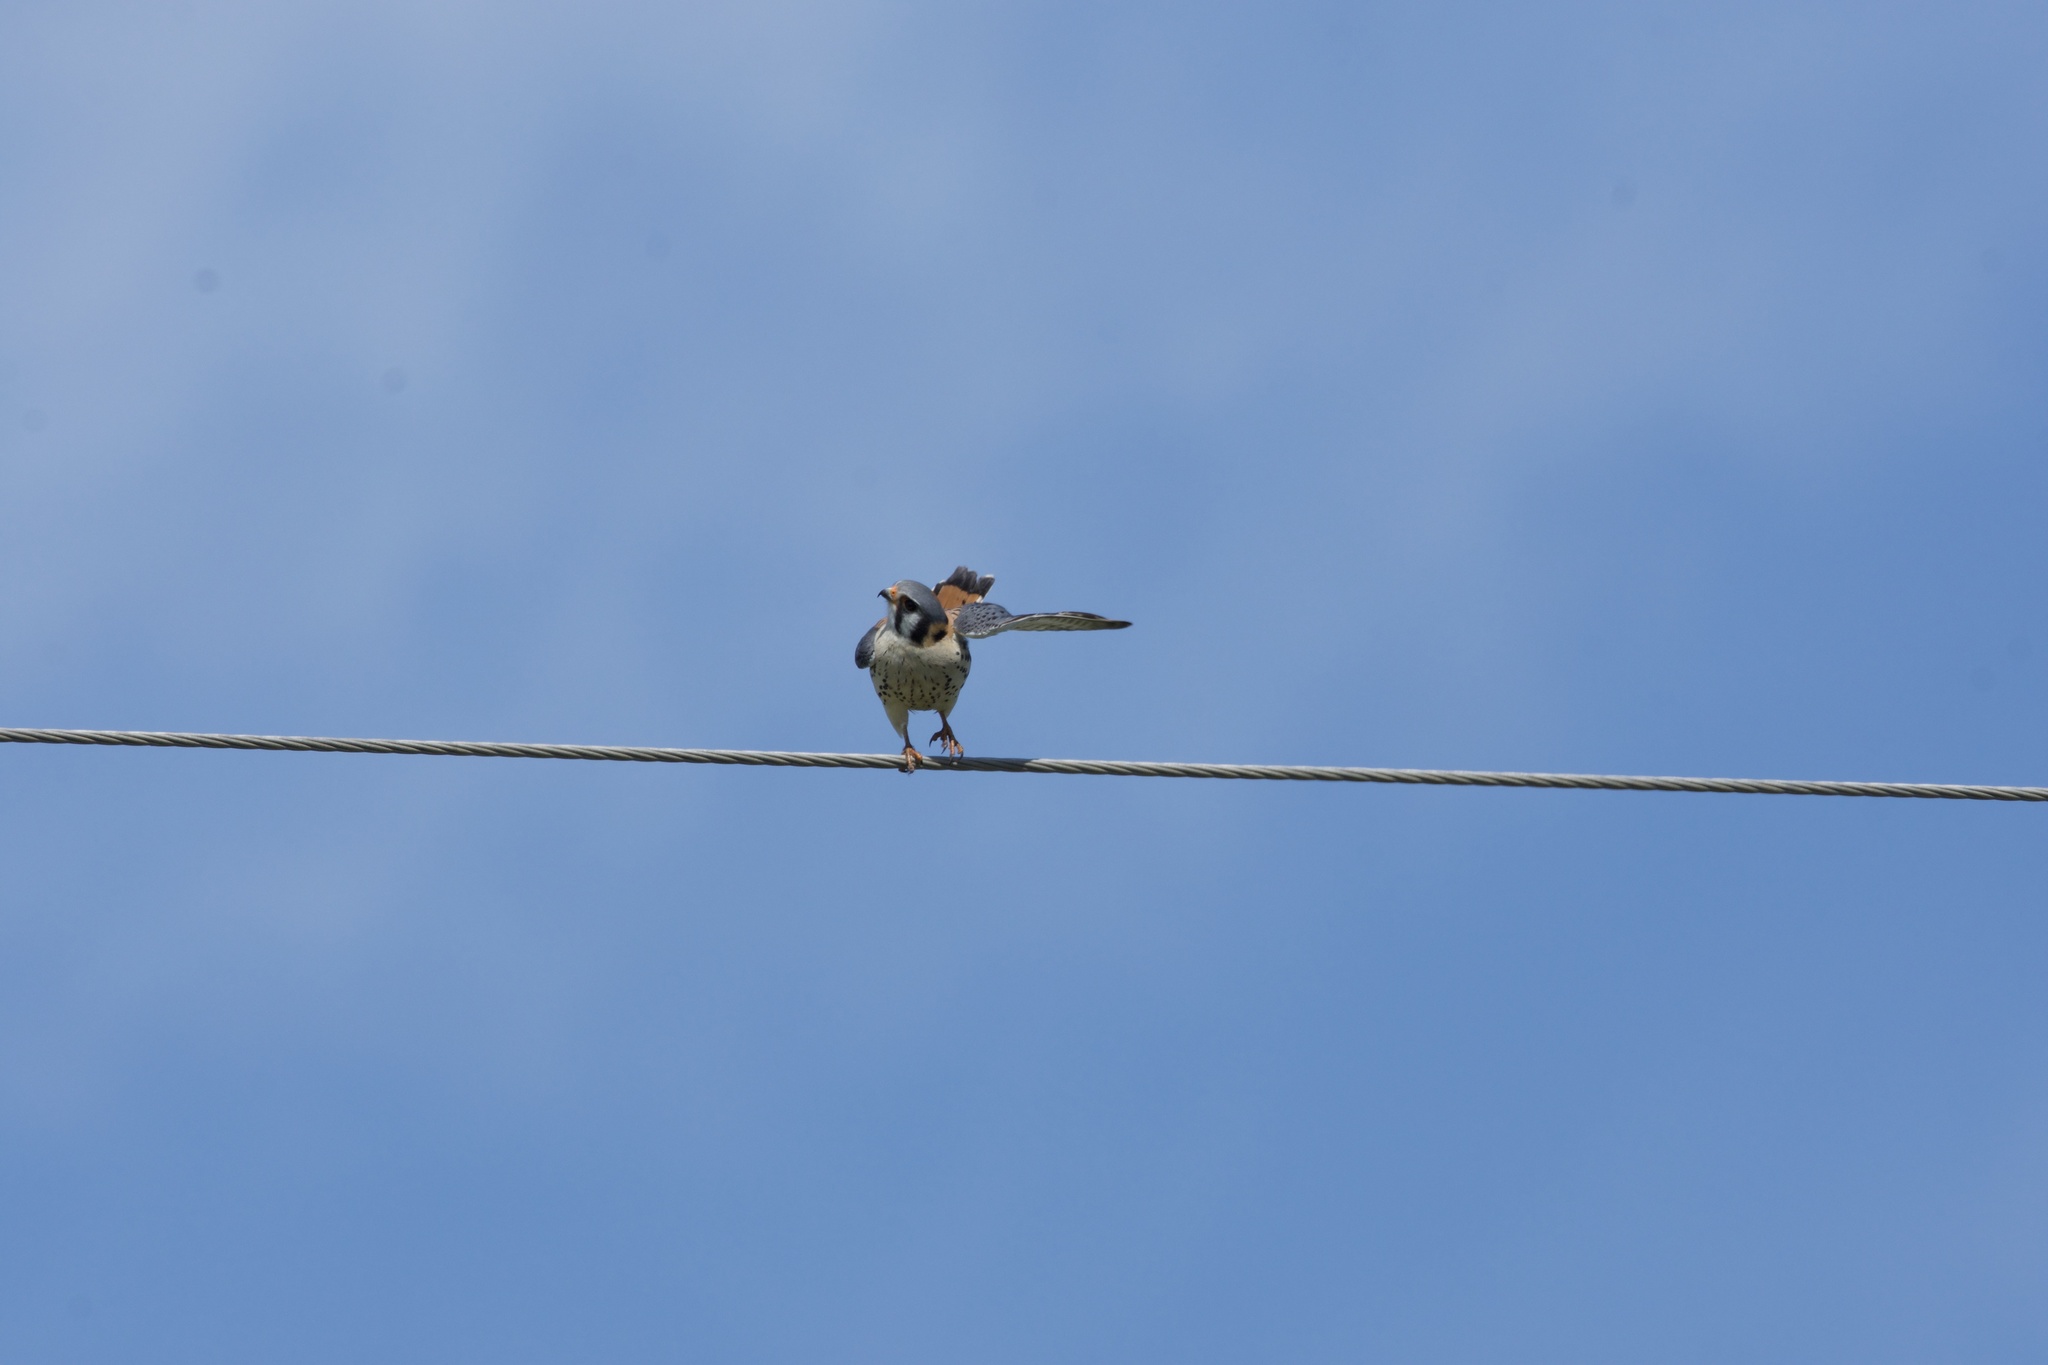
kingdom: Animalia
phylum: Chordata
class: Aves
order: Falconiformes
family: Falconidae
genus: Falco
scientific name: Falco sparverius
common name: American kestrel
